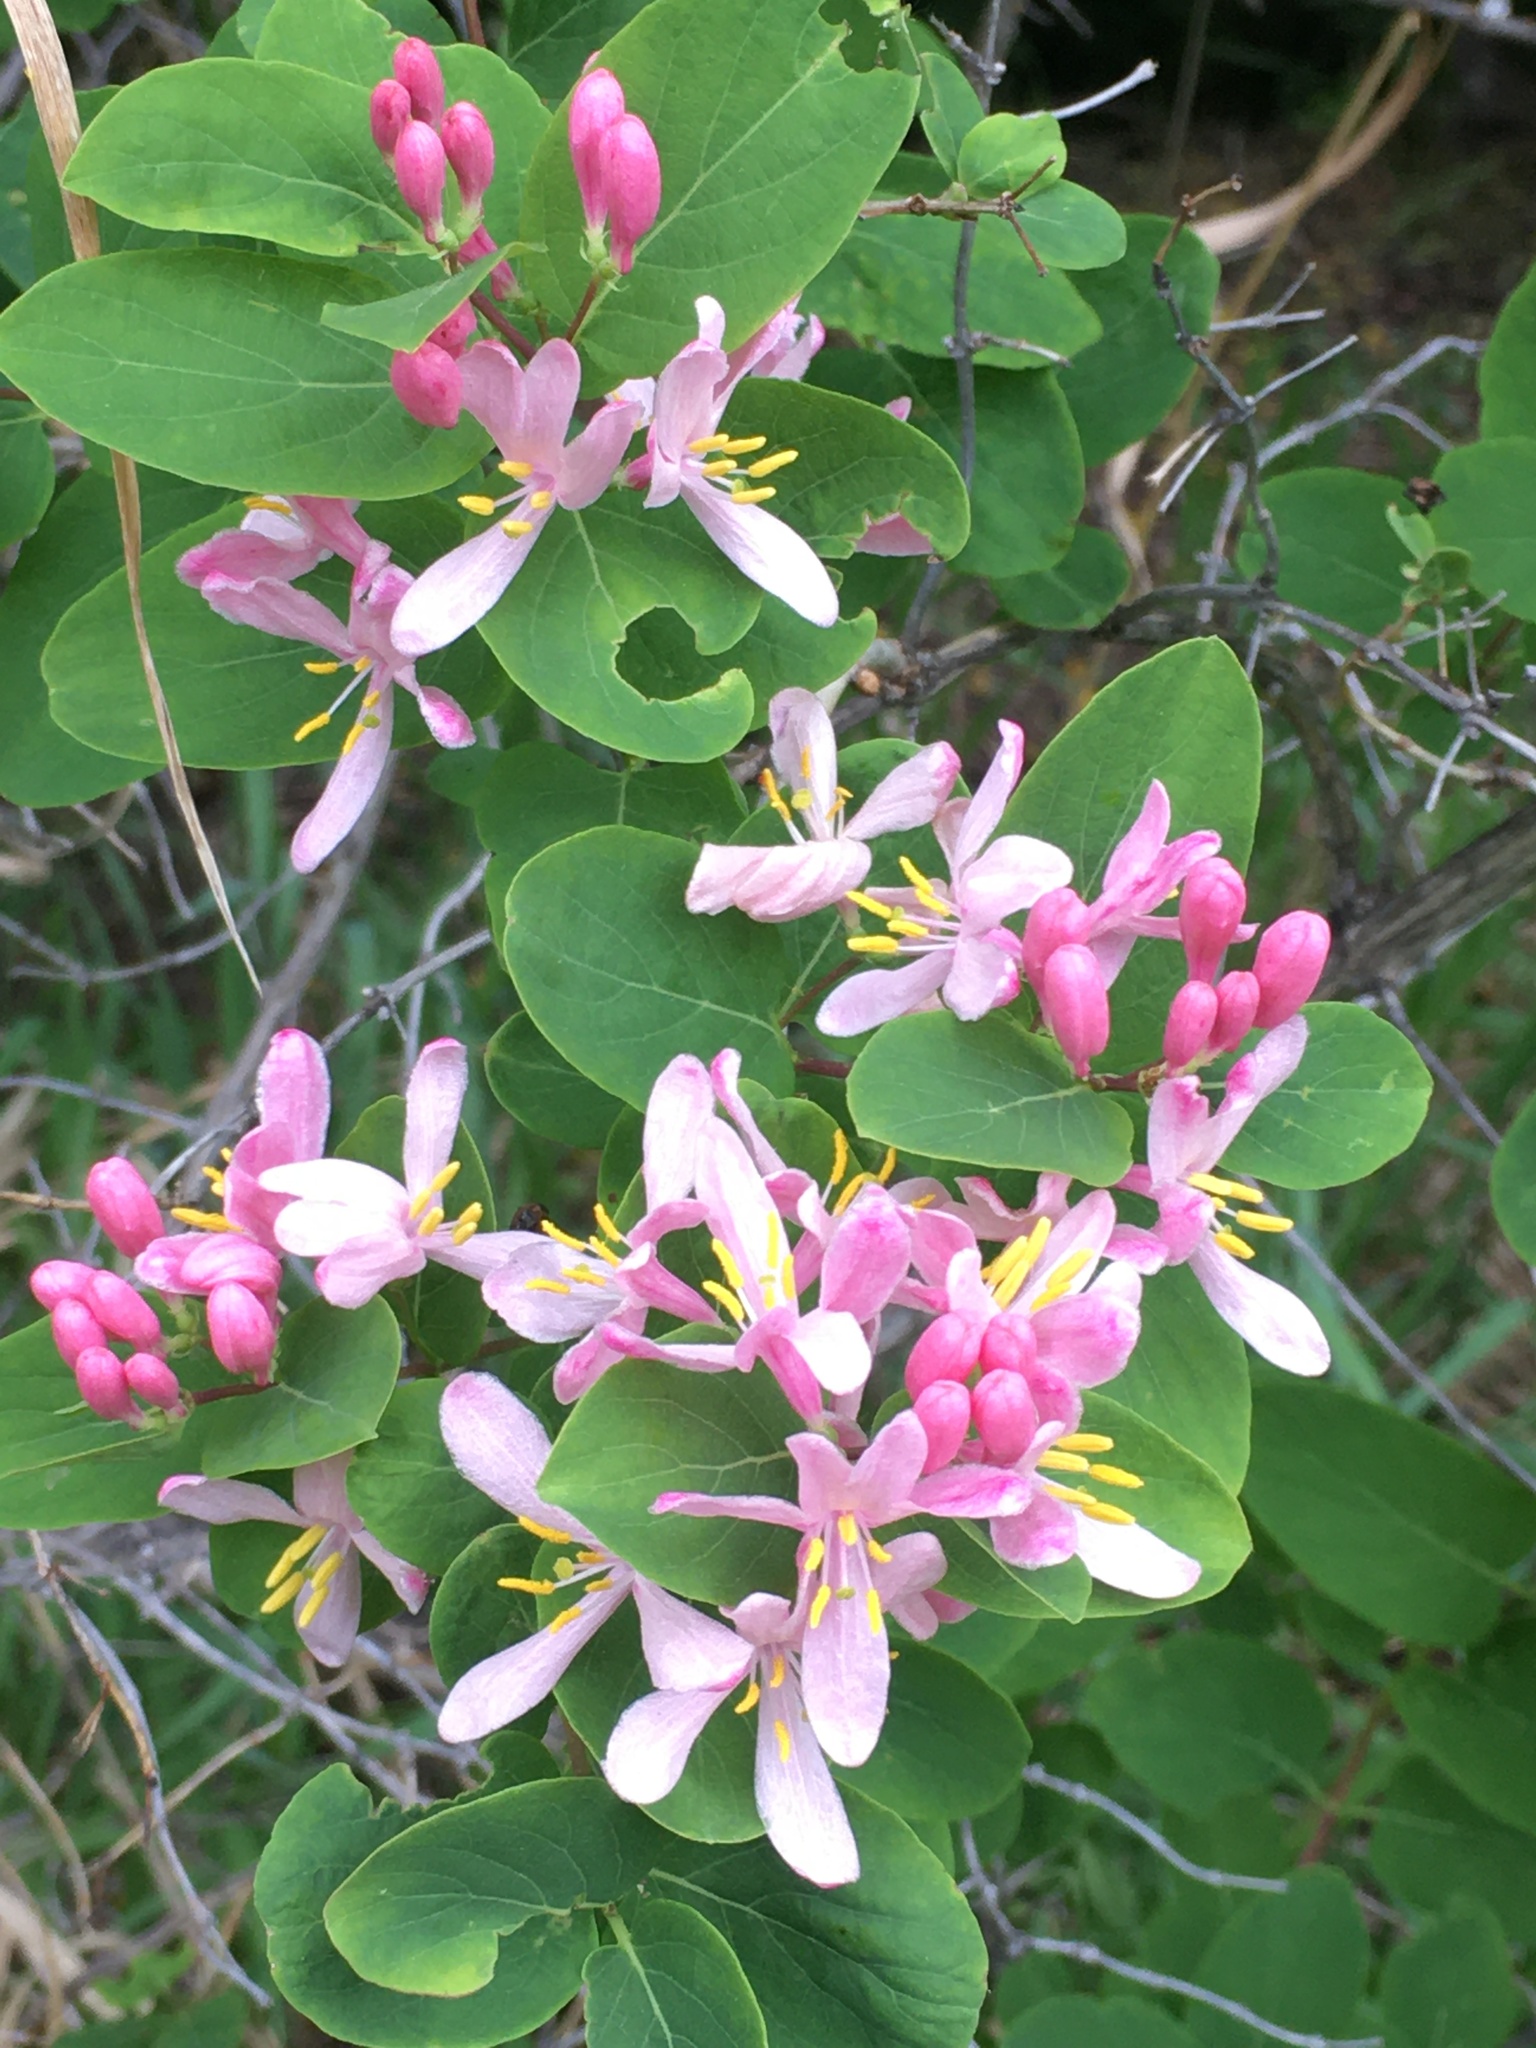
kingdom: Plantae
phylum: Tracheophyta
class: Magnoliopsida
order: Dipsacales
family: Caprifoliaceae
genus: Lonicera
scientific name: Lonicera tatarica
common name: Tatarian honeysuckle
